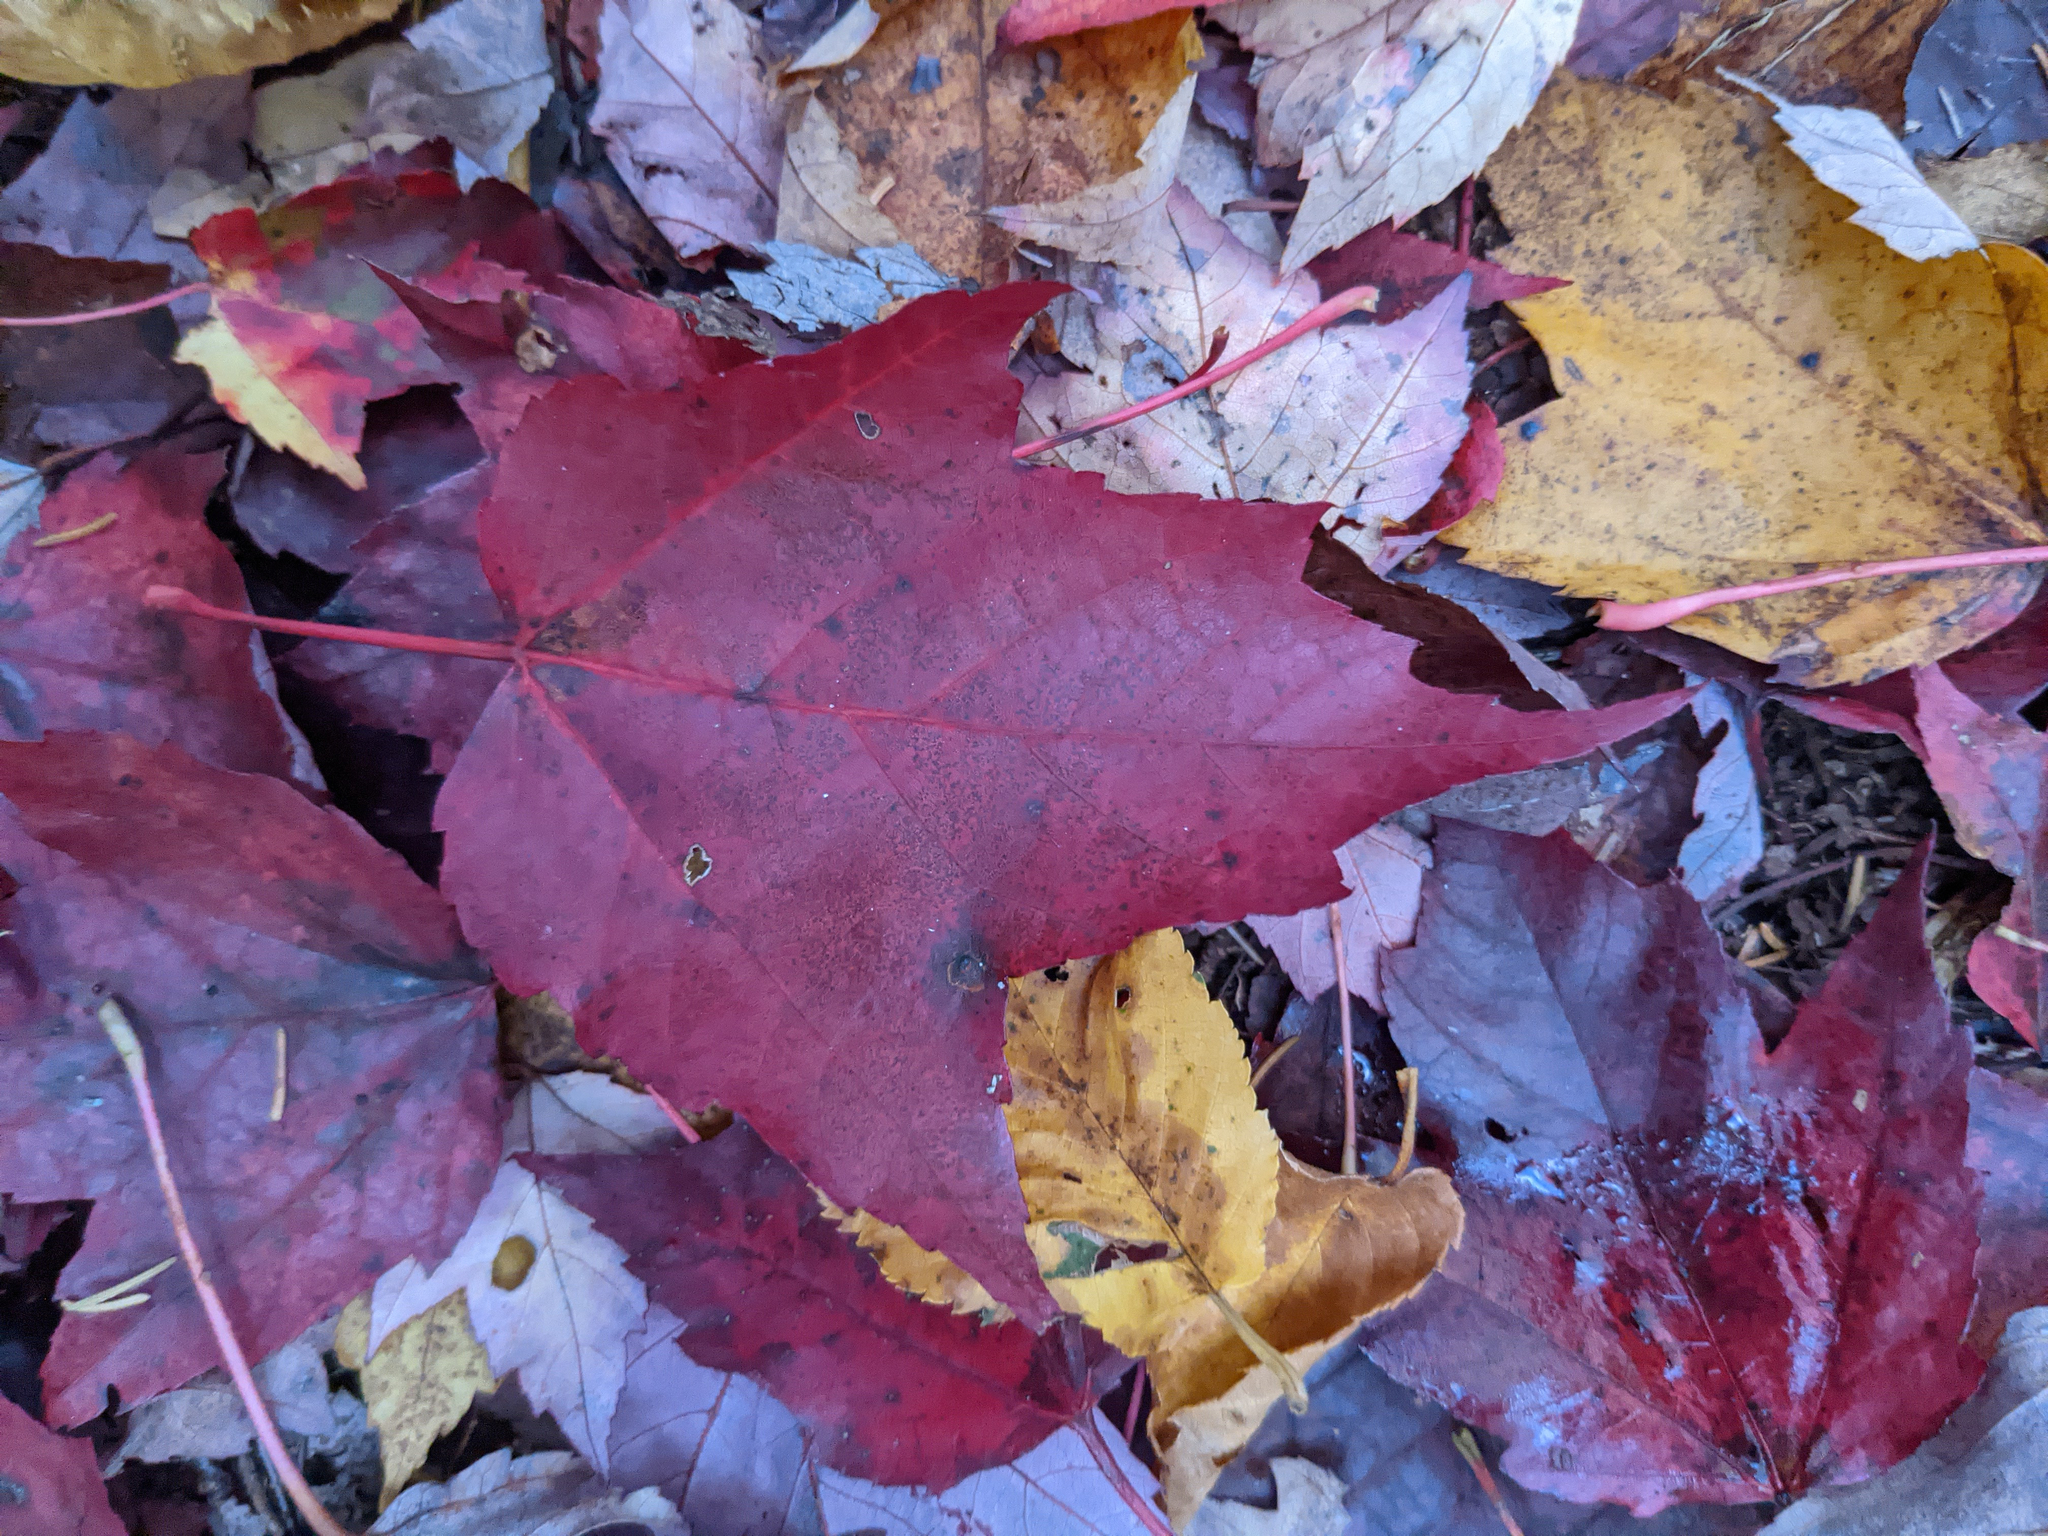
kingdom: Plantae
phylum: Tracheophyta
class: Magnoliopsida
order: Sapindales
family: Sapindaceae
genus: Acer
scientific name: Acer rubrum
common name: Red maple
